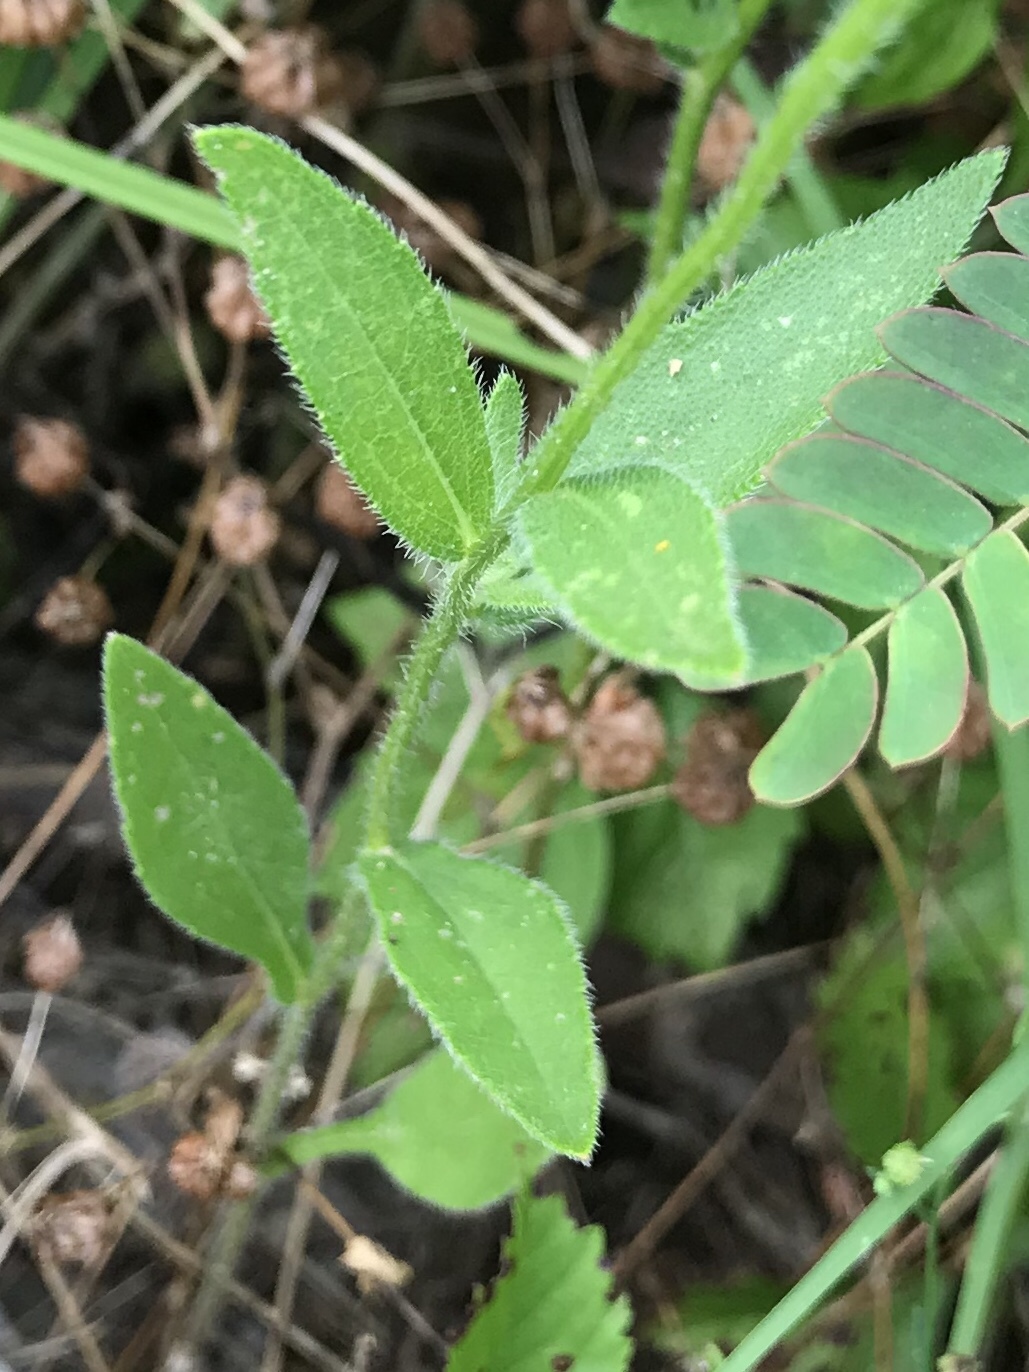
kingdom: Plantae
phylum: Tracheophyta
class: Magnoliopsida
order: Asterales
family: Asteraceae
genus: Rudbeckia
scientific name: Rudbeckia hirta
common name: Black-eyed-susan
